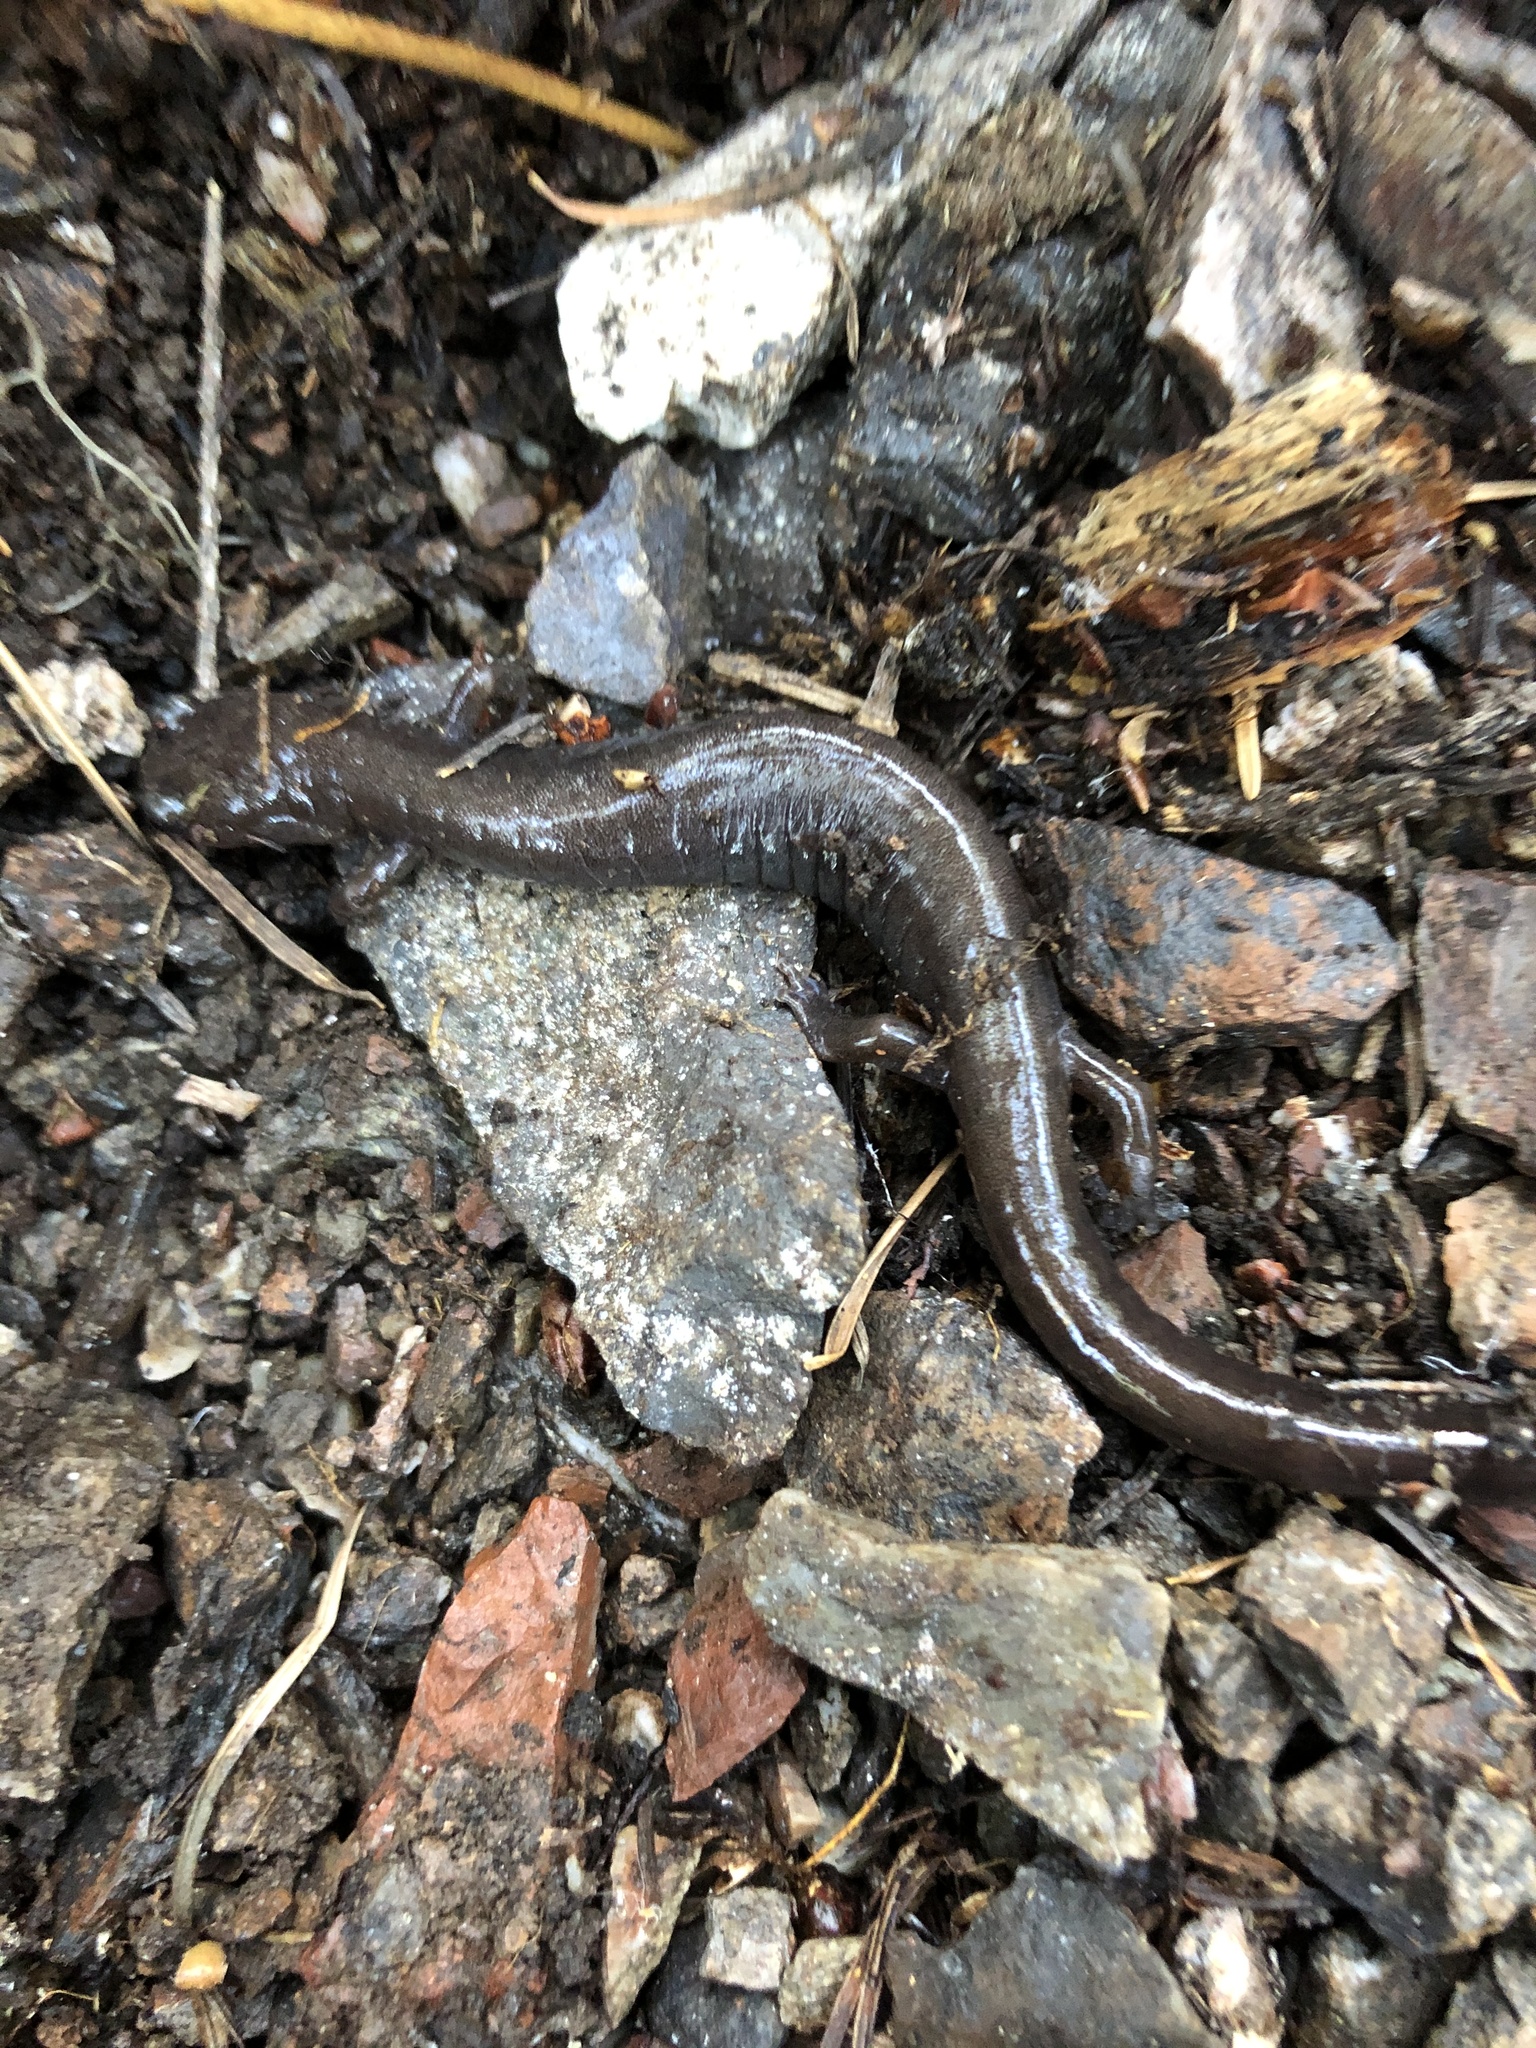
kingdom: Animalia
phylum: Chordata
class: Amphibia
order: Caudata
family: Plethodontidae
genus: Plethodon
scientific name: Plethodon elongatus
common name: Del norte salamander
